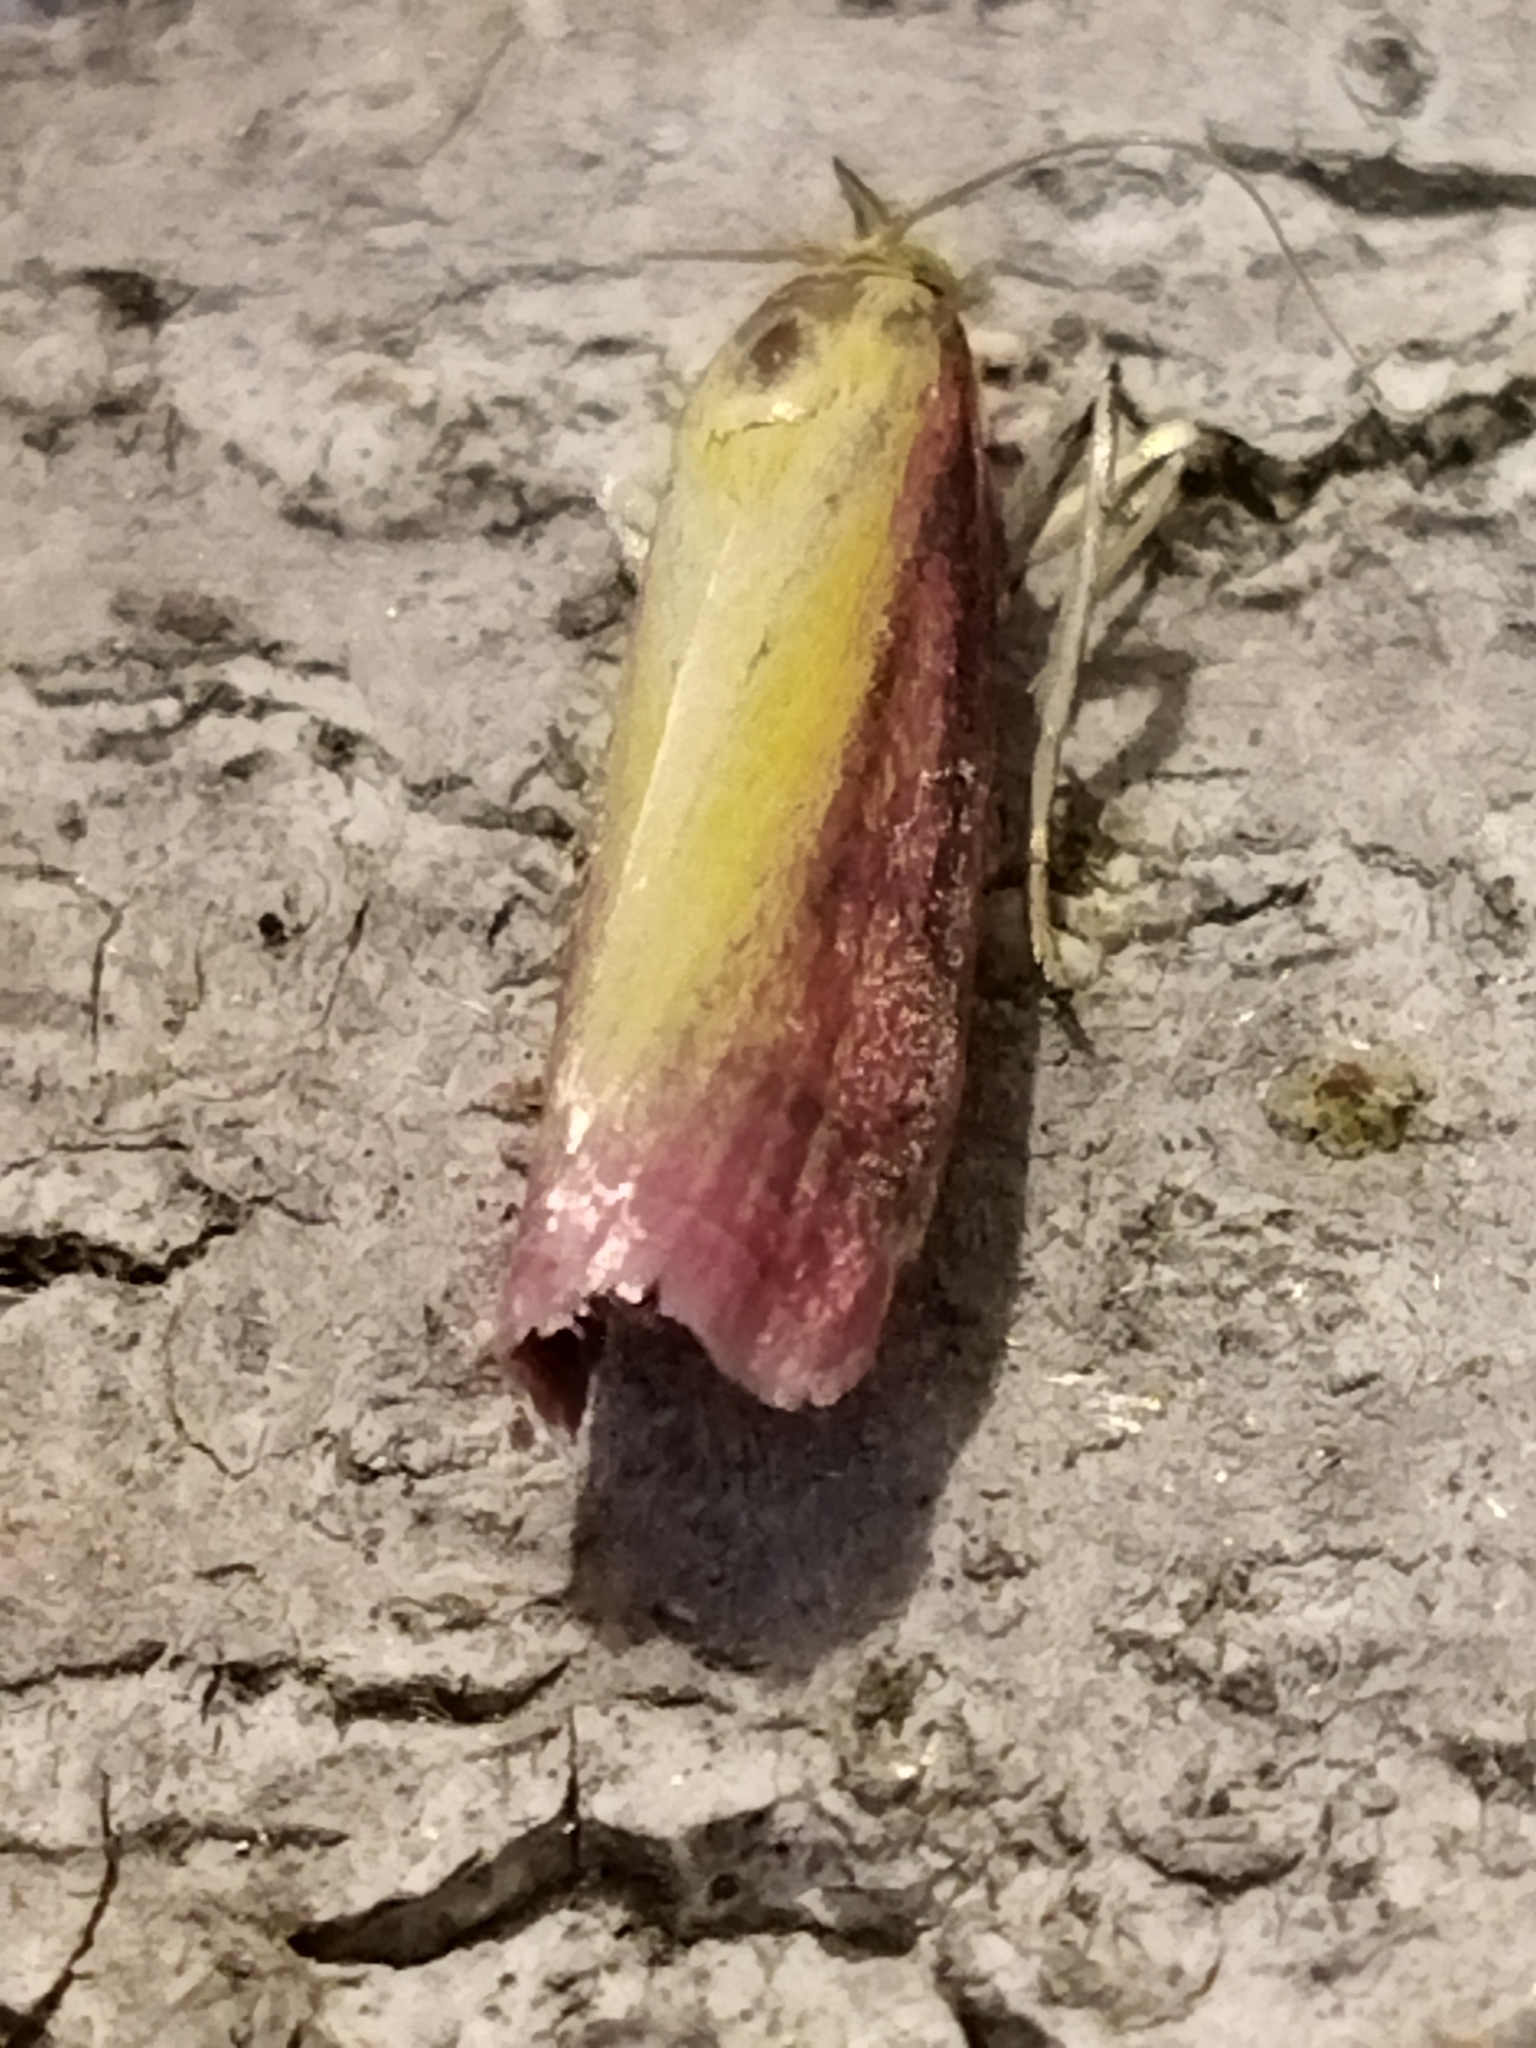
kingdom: Animalia
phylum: Arthropoda
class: Insecta
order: Lepidoptera
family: Pyralidae
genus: Oncocera
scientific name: Oncocera semirubella
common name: Rosy-striped knot-horn
